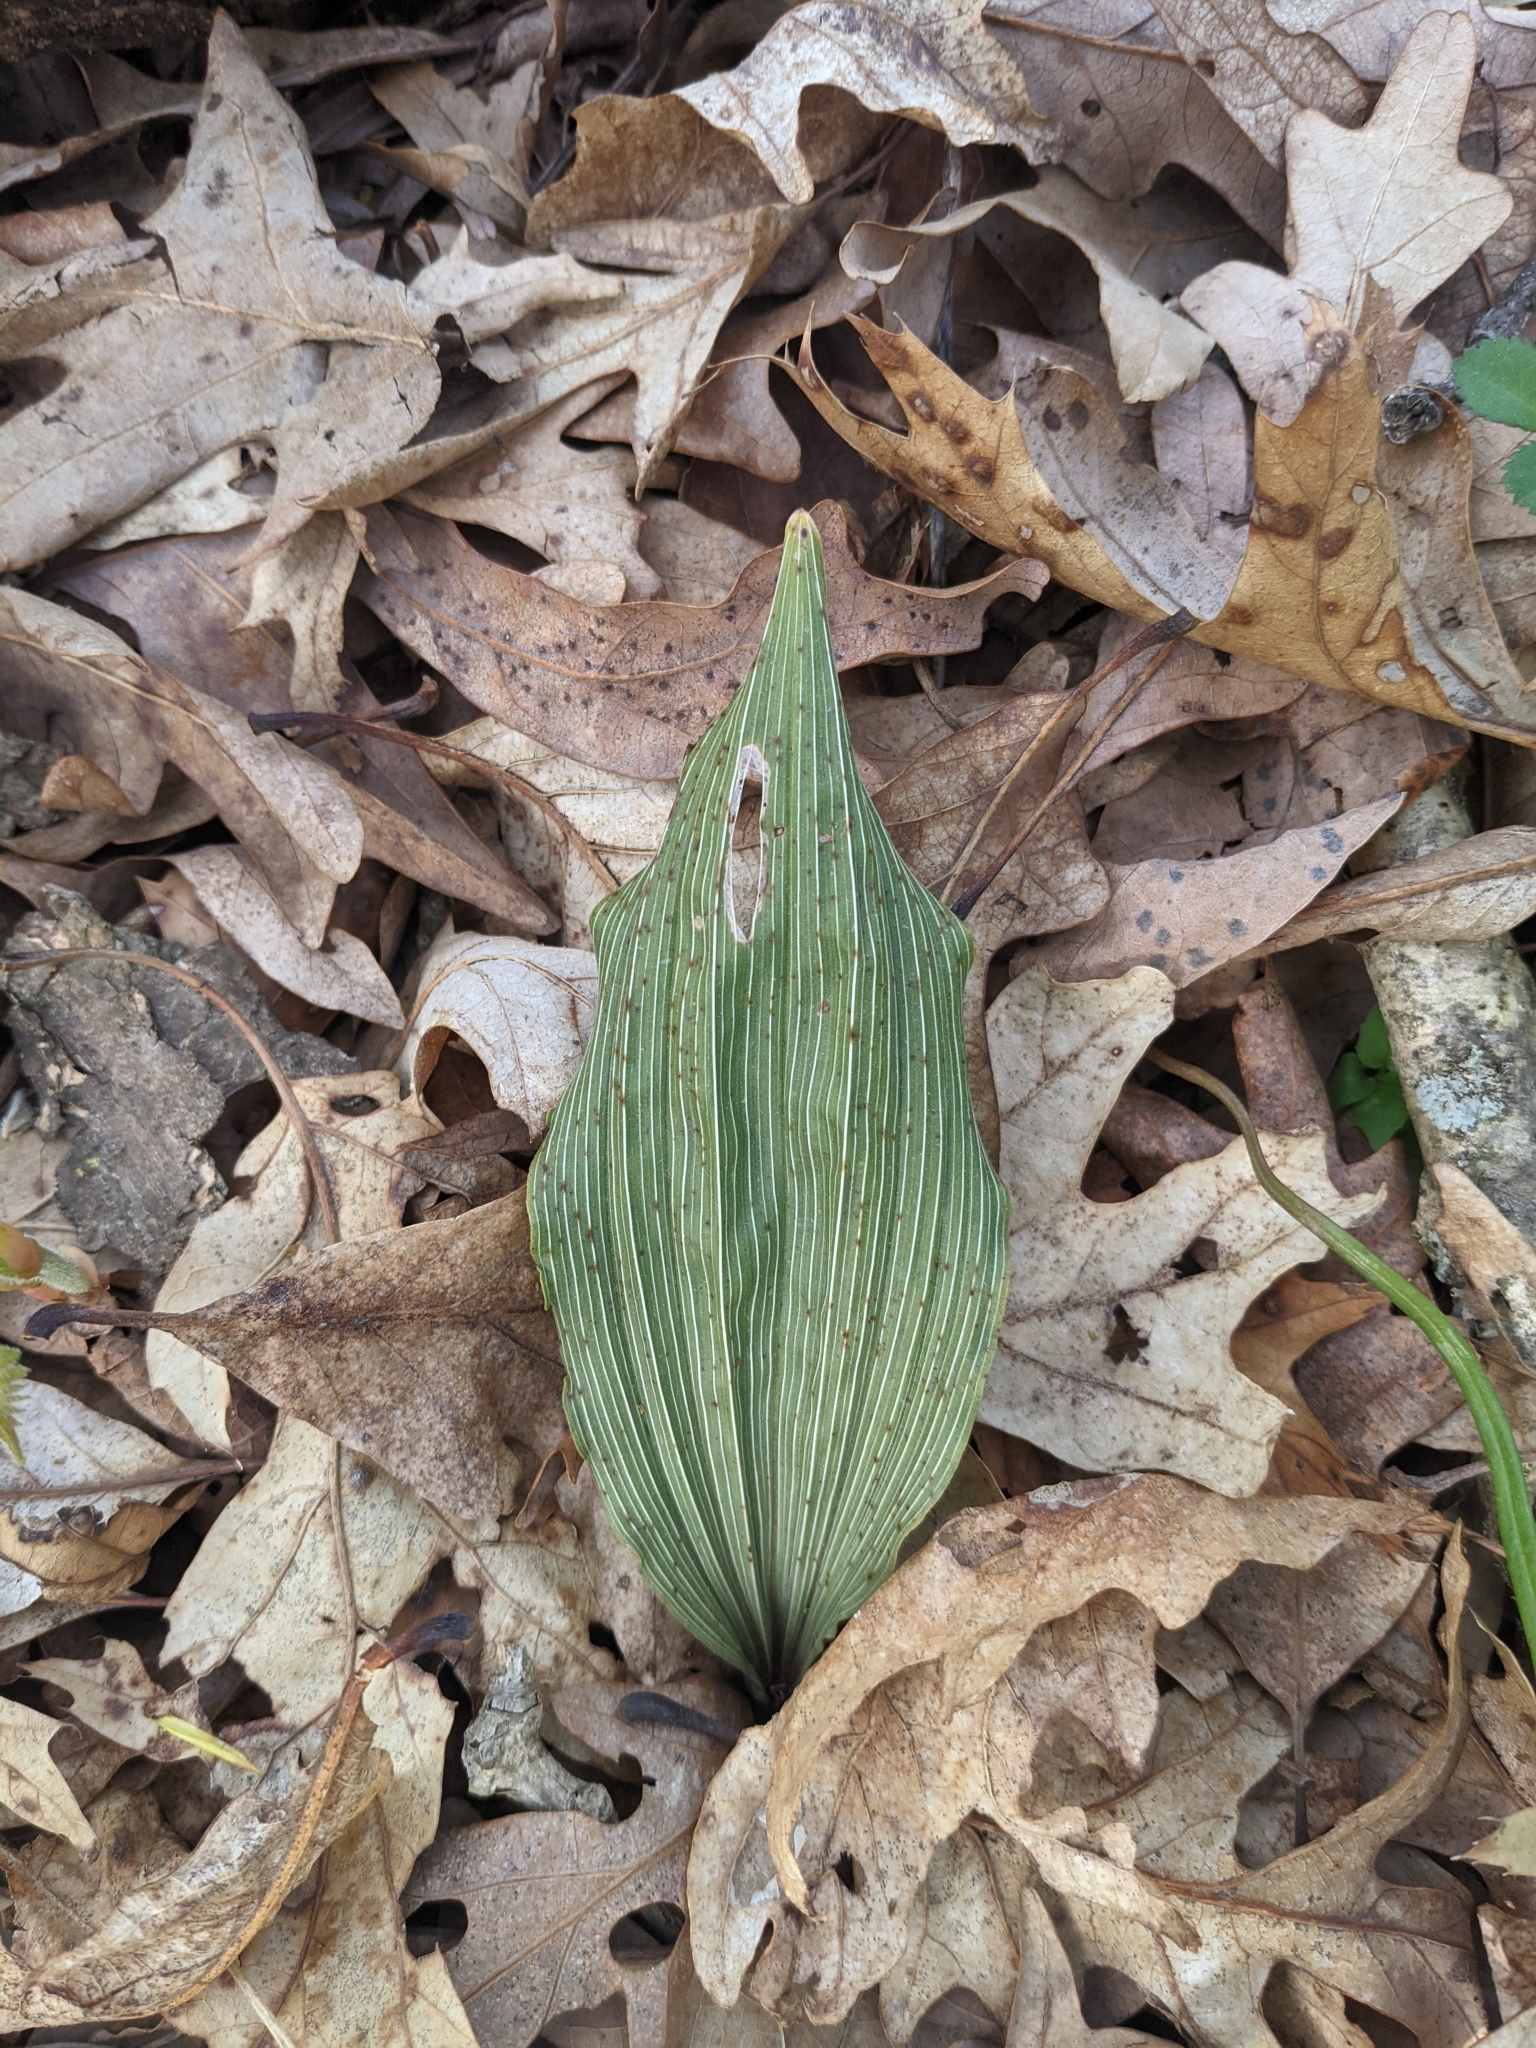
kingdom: Plantae
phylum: Tracheophyta
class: Liliopsida
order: Asparagales
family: Orchidaceae
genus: Aplectrum
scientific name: Aplectrum hyemale
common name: Adam-and-eve
